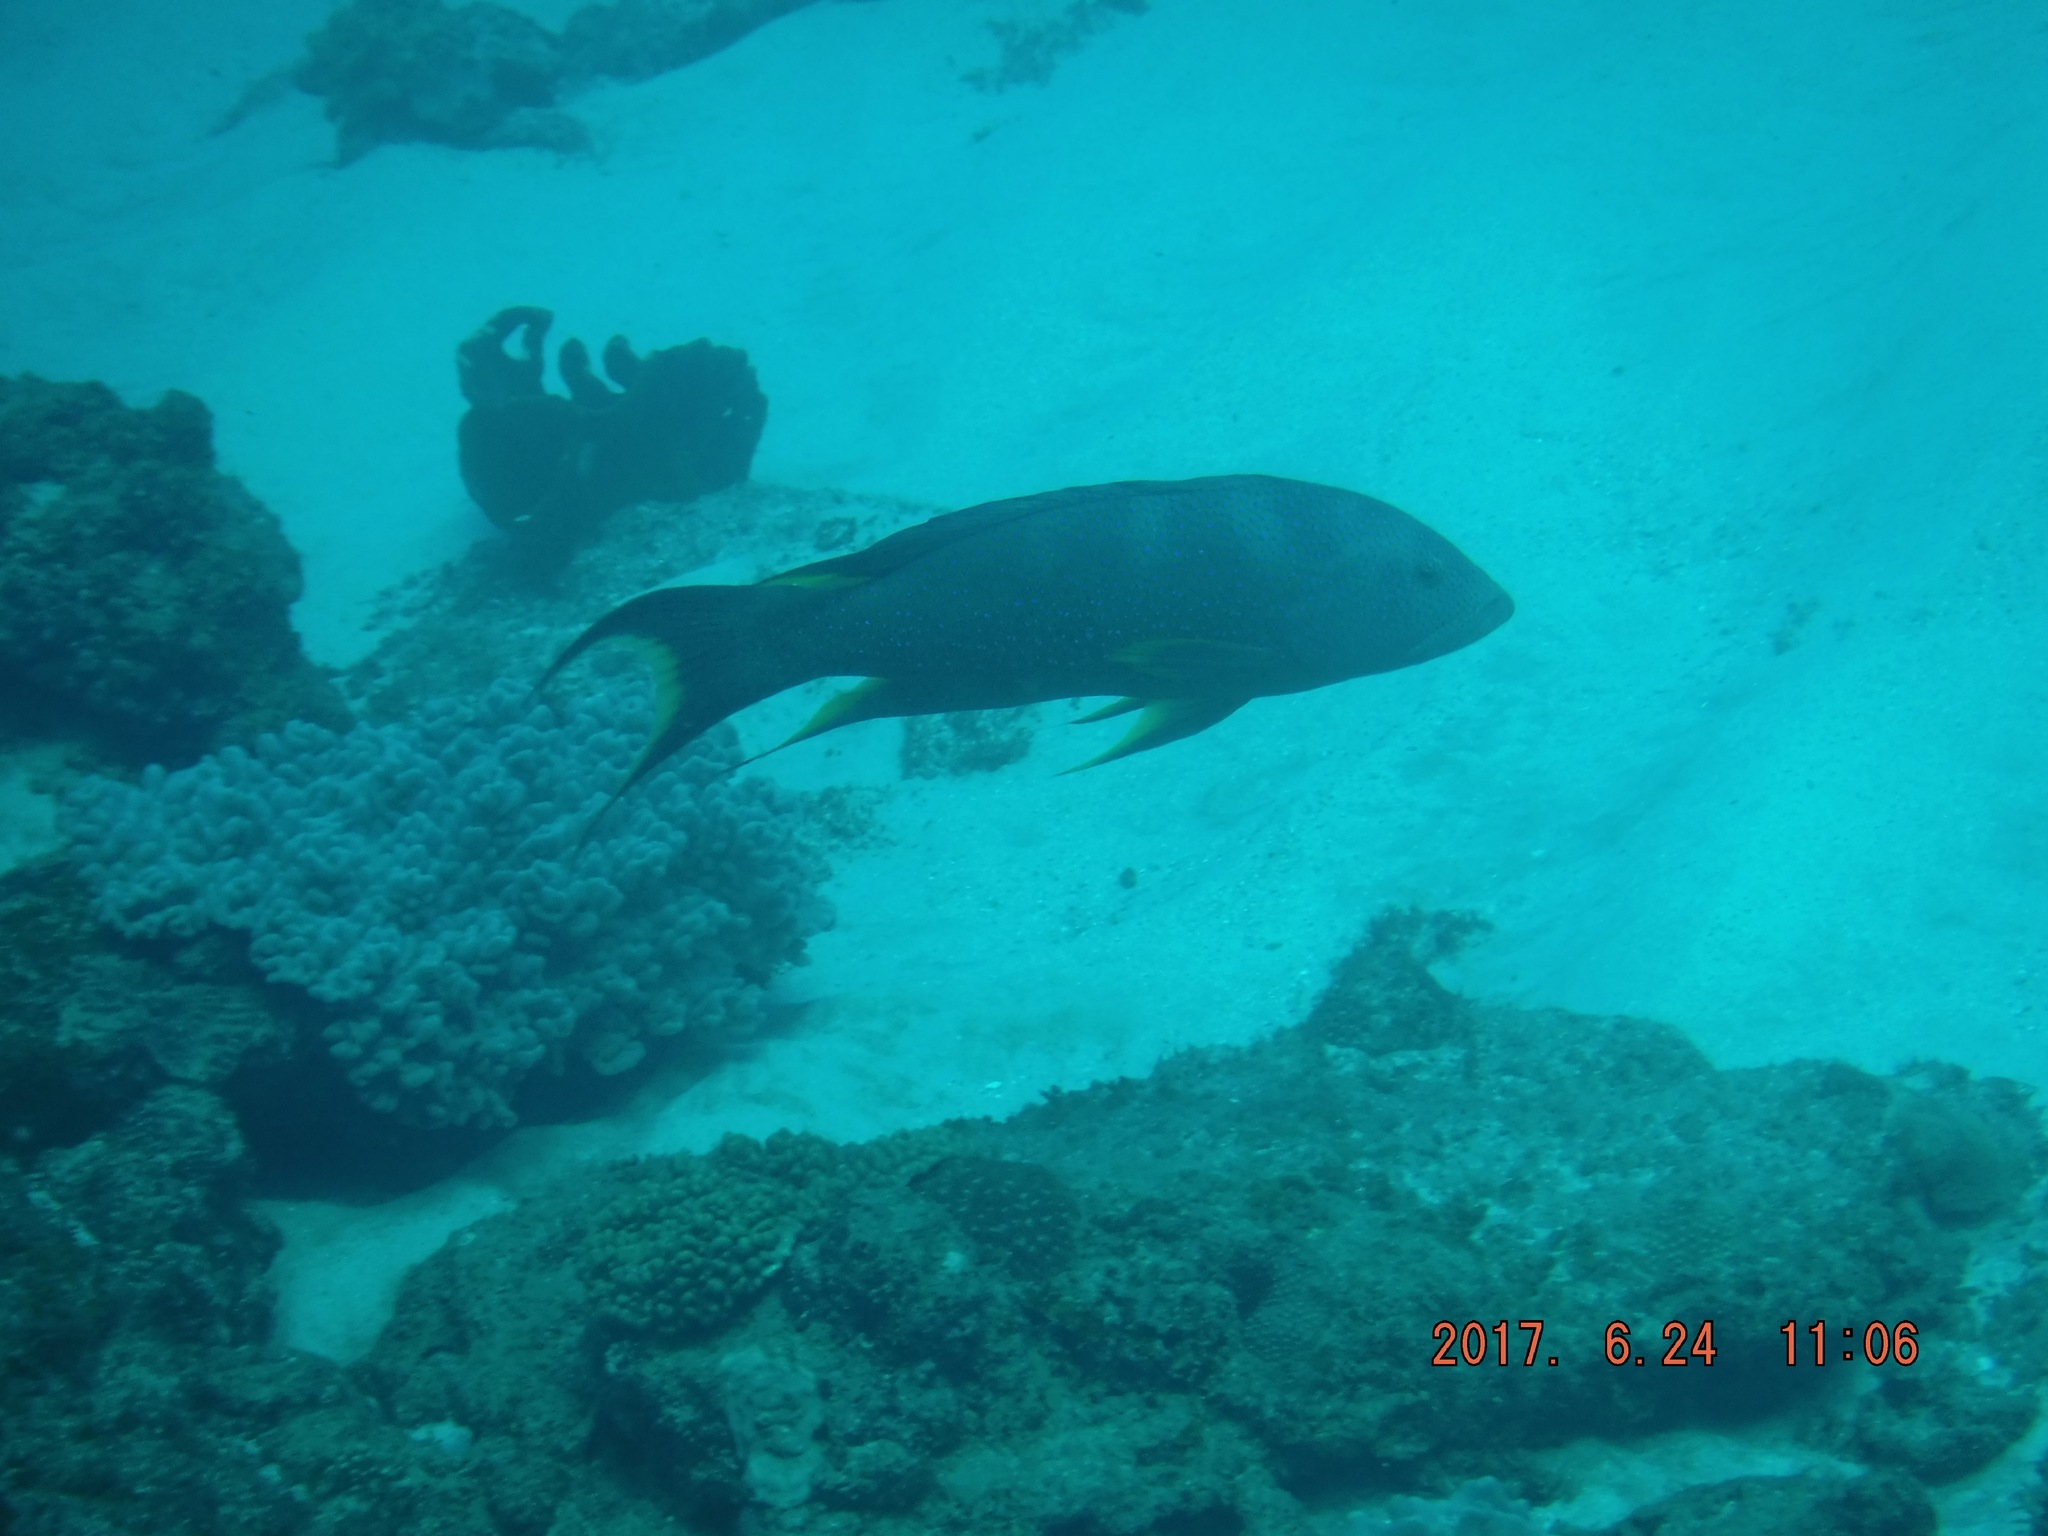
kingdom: Animalia
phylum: Chordata
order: Perciformes
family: Serranidae
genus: Variola
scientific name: Variola louti
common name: Yellow-edged lyretail
